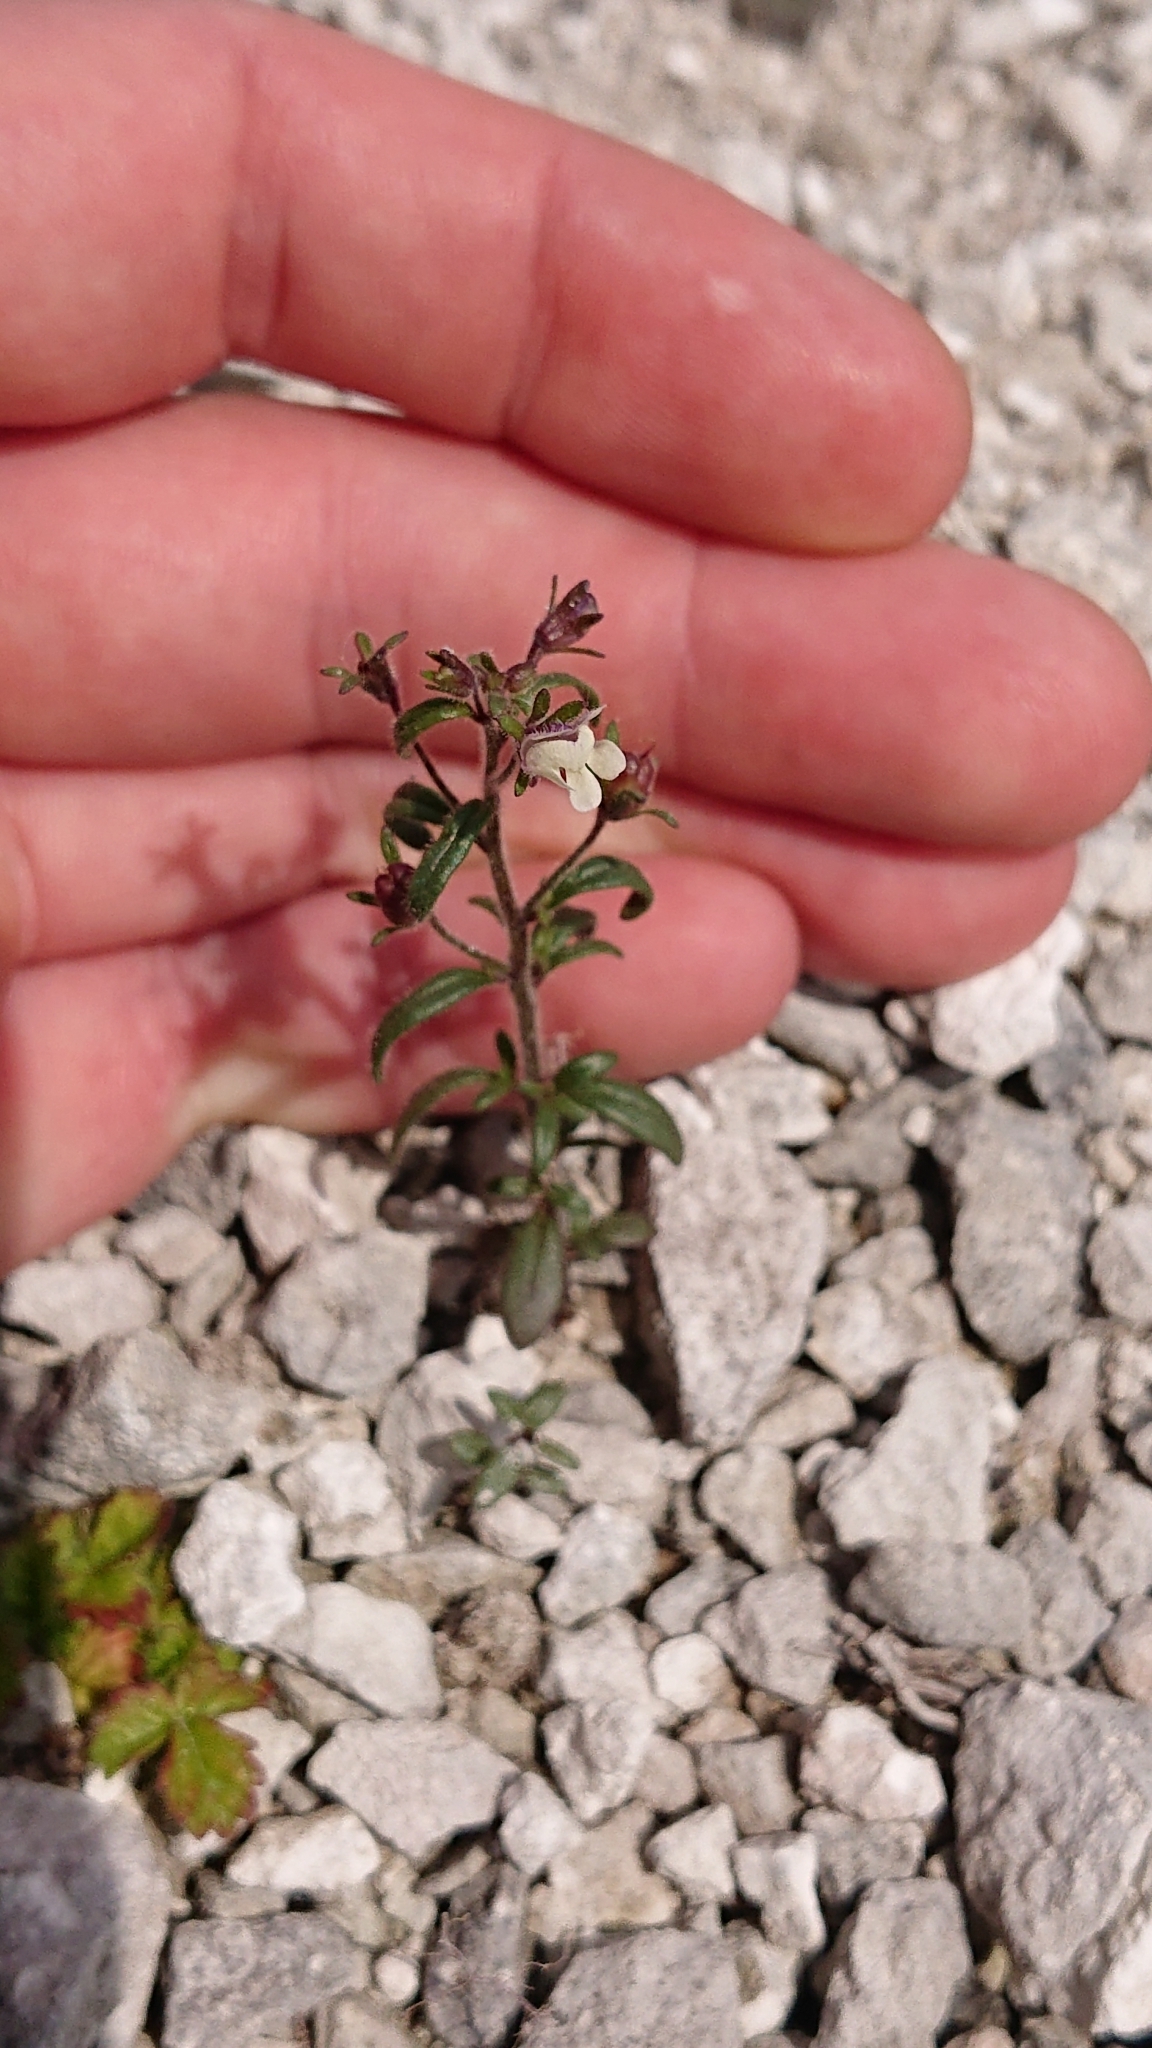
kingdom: Plantae
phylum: Tracheophyta
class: Magnoliopsida
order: Lamiales
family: Plantaginaceae
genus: Chaenorhinum
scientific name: Chaenorhinum minus
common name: Dwarf snapdragon
